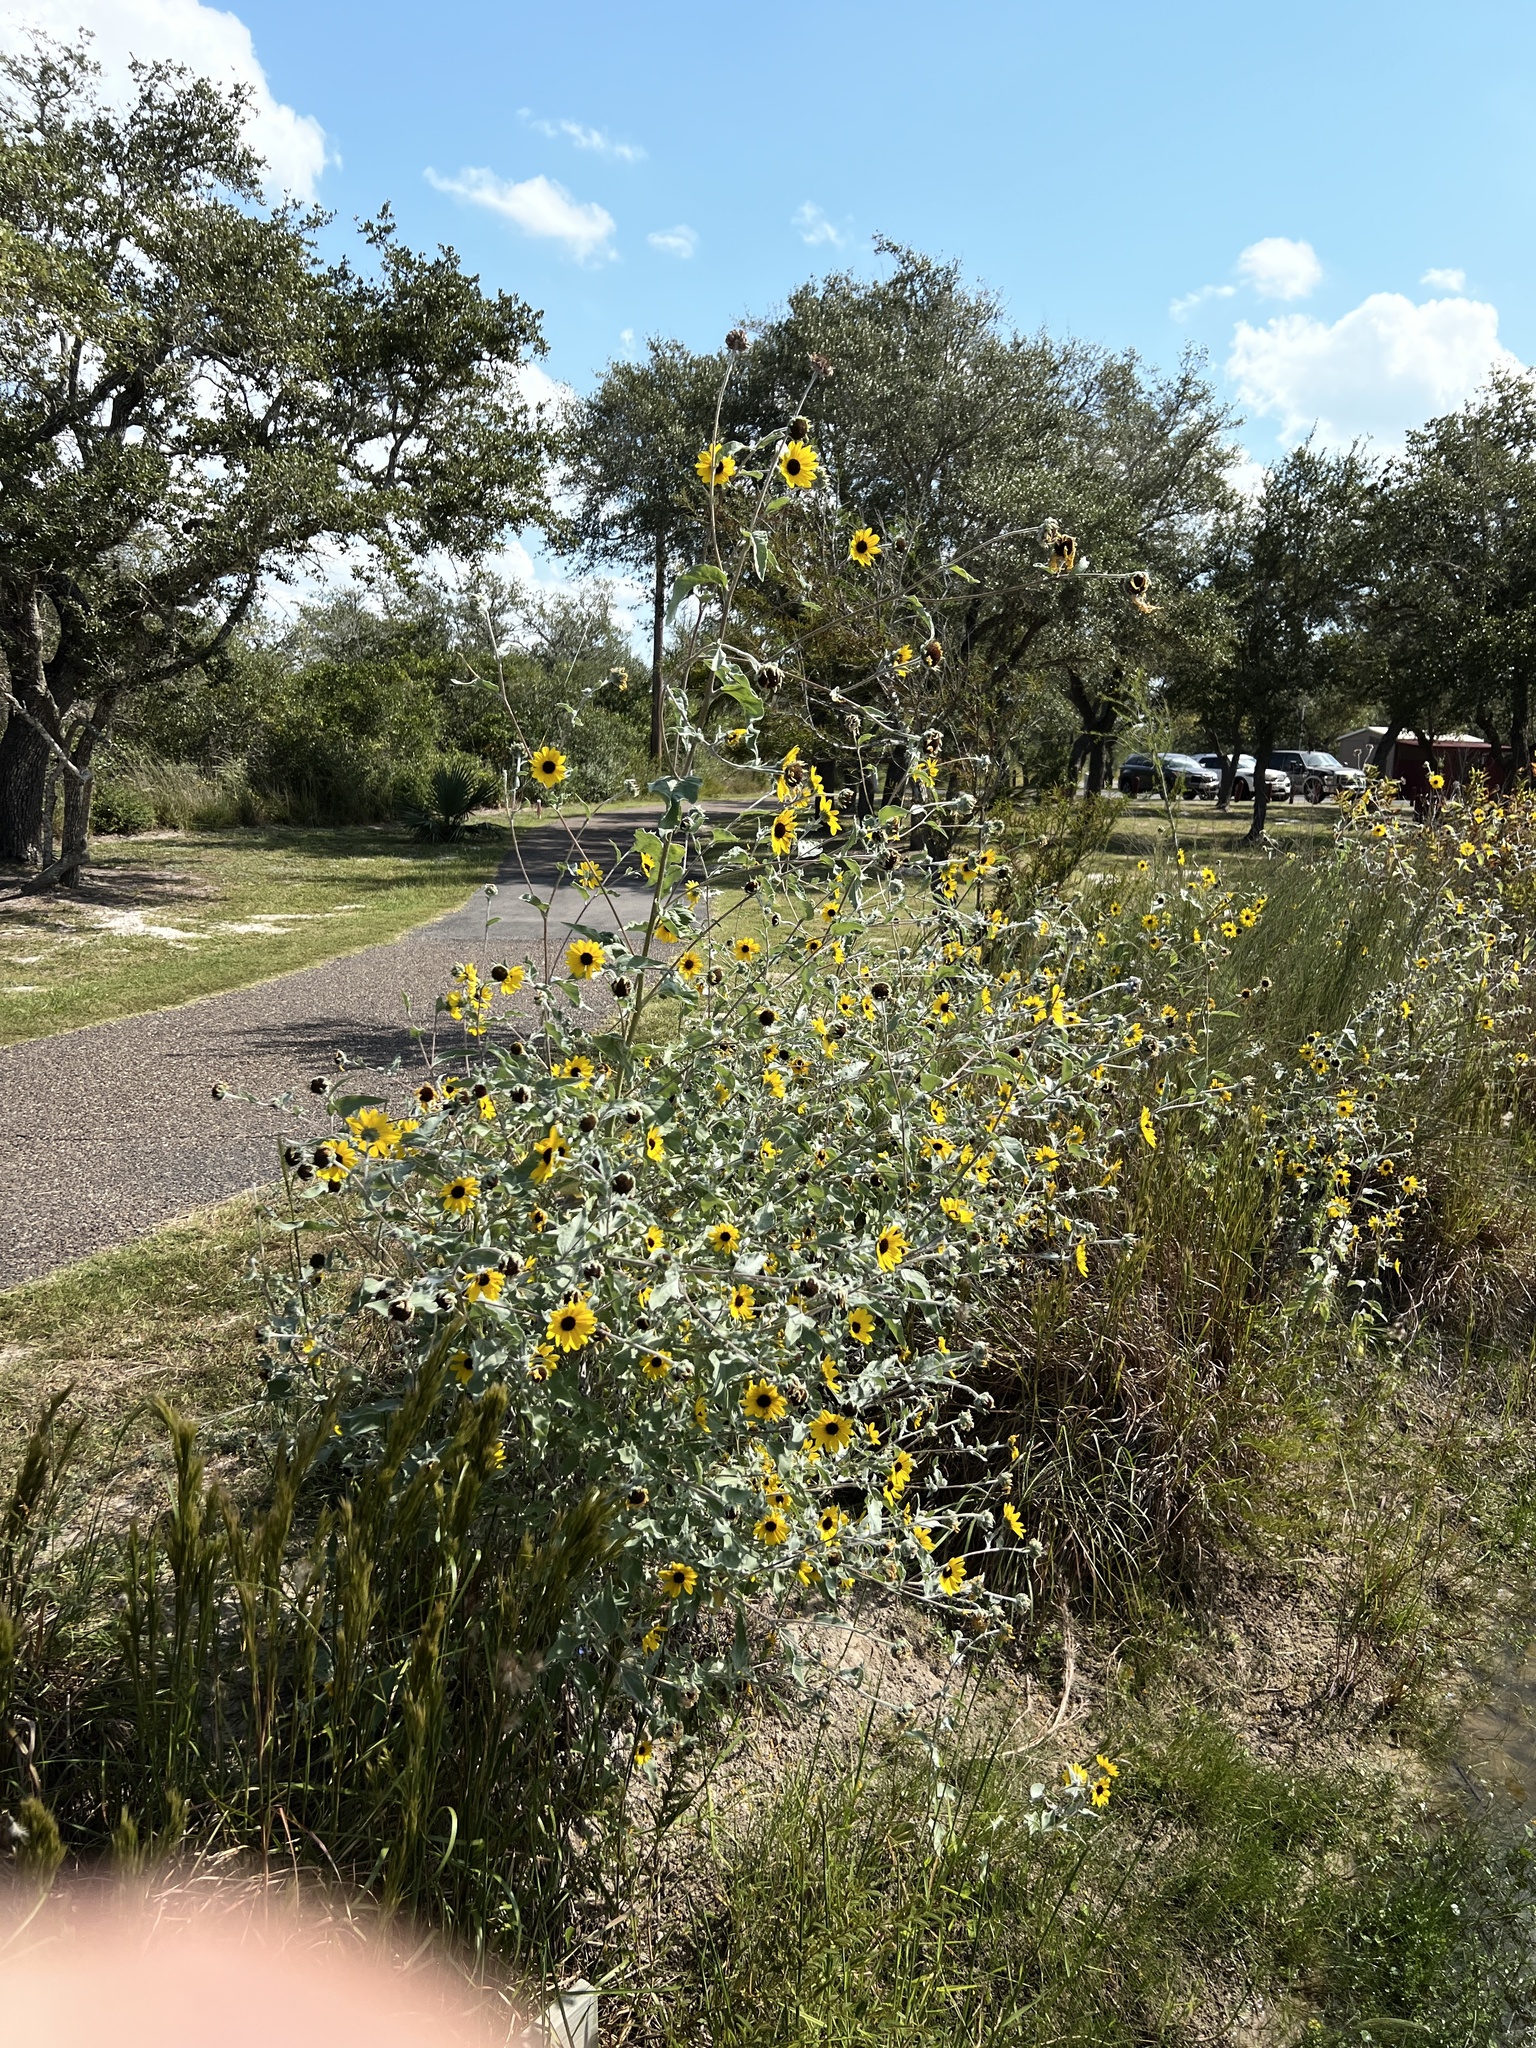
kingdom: Plantae
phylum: Tracheophyta
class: Magnoliopsida
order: Asterales
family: Asteraceae
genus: Helianthus
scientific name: Helianthus argophyllus
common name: Silverleaf sunflower
